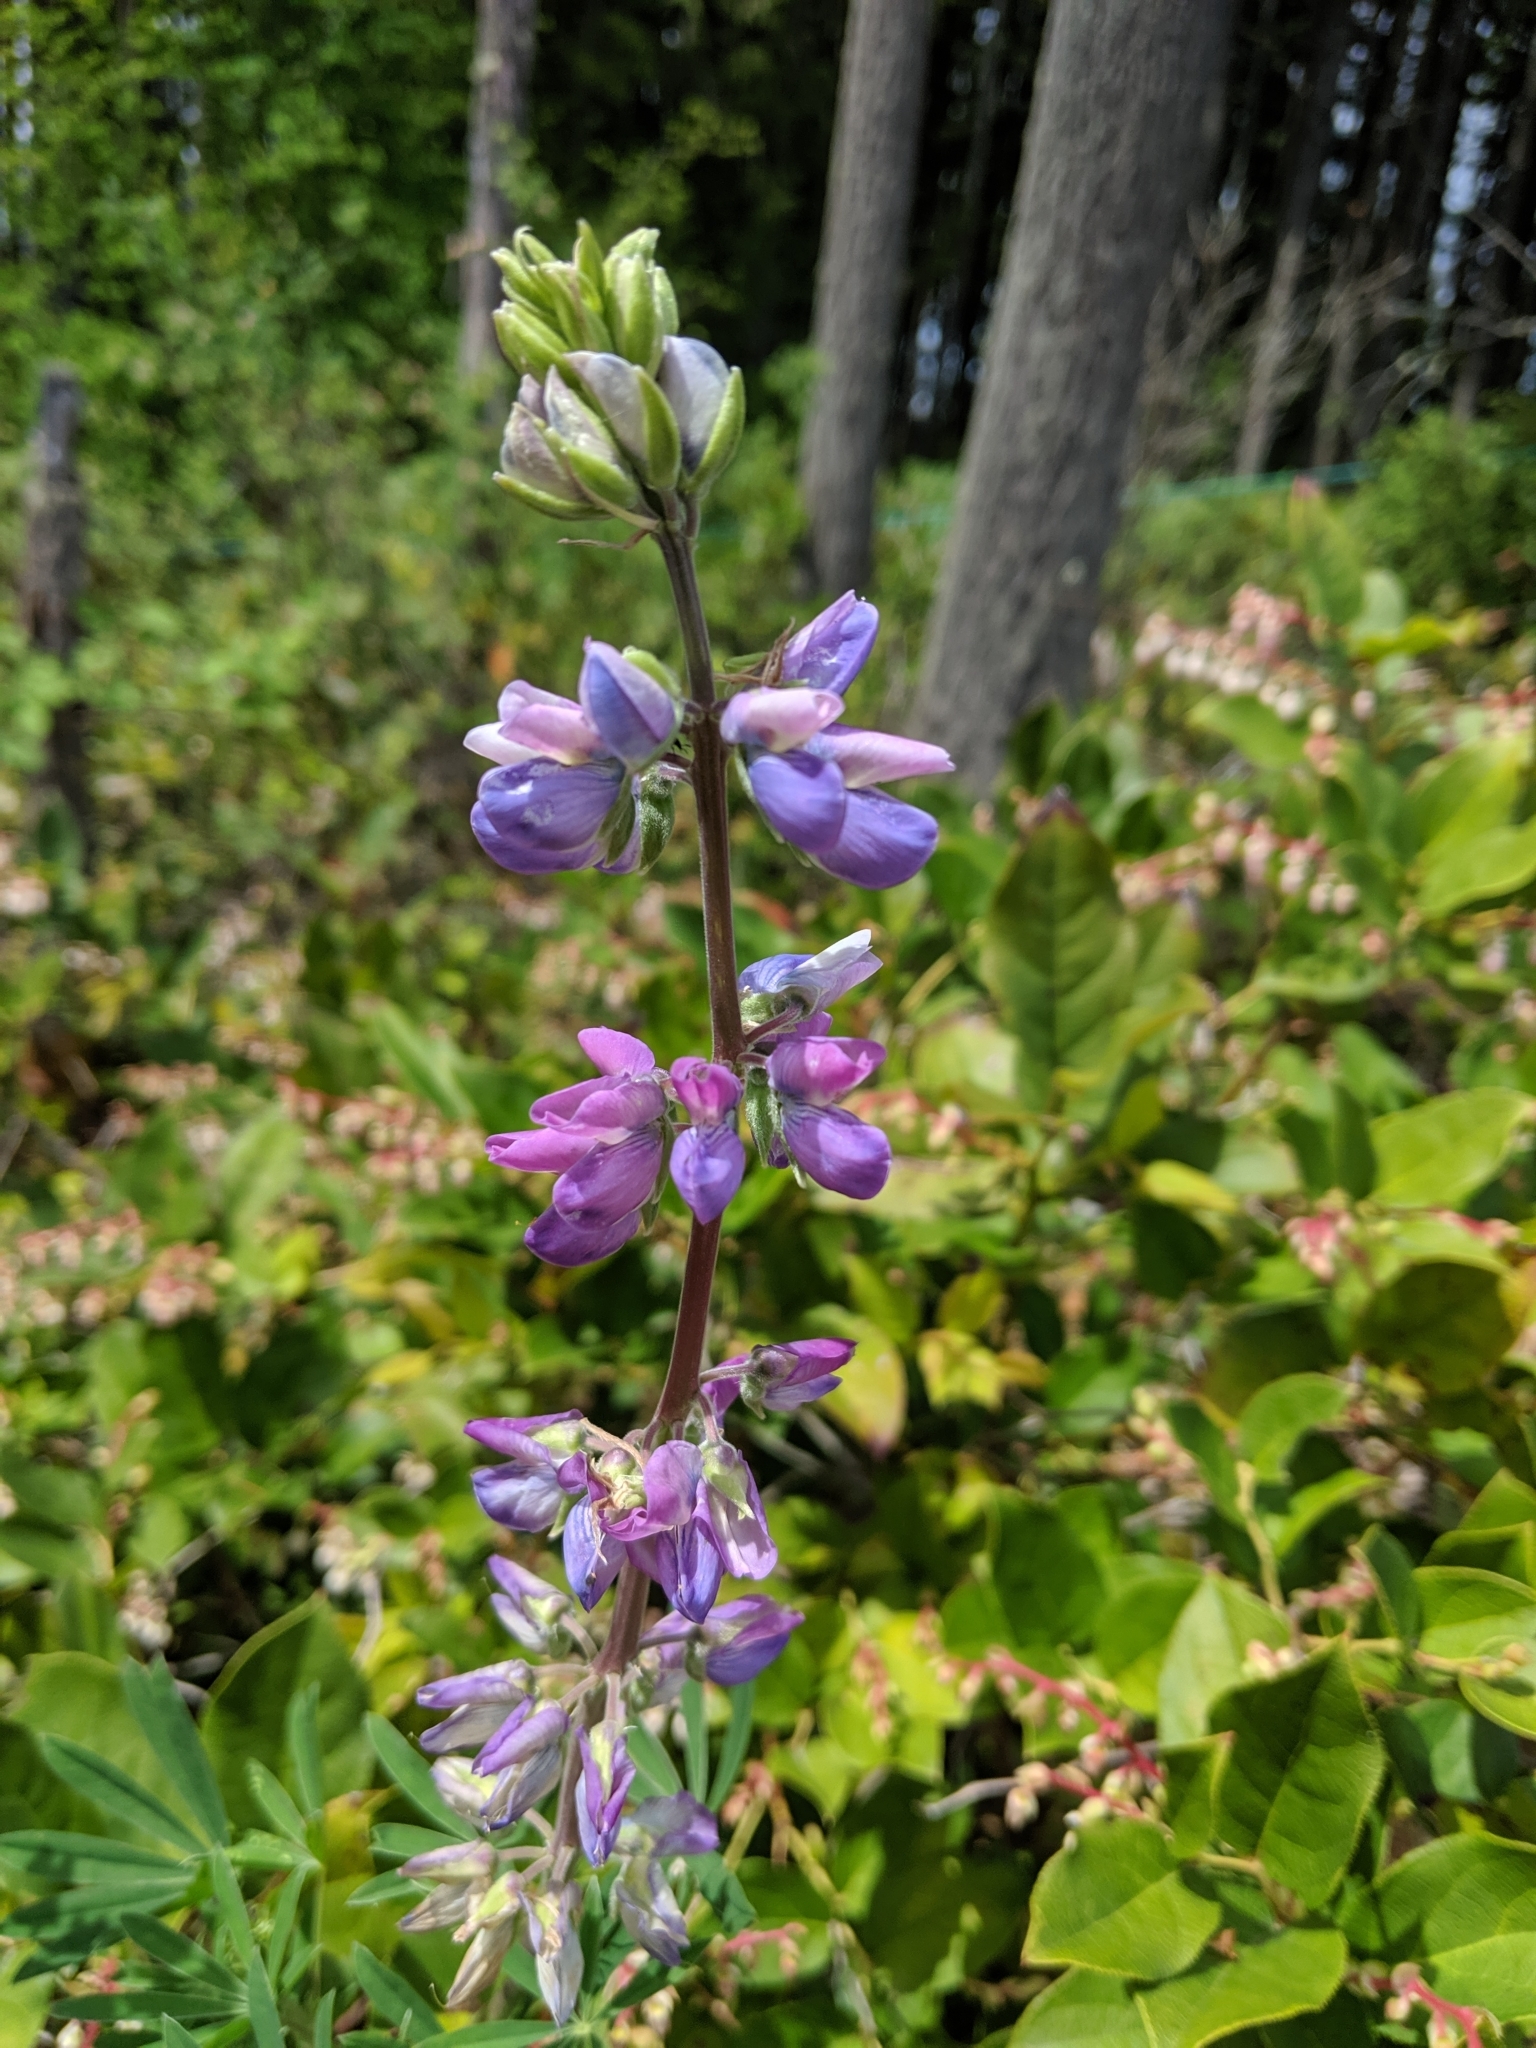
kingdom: Plantae
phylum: Tracheophyta
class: Magnoliopsida
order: Fabales
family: Fabaceae
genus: Lupinus
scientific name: Lupinus rivularis
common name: Riverbank lupine
